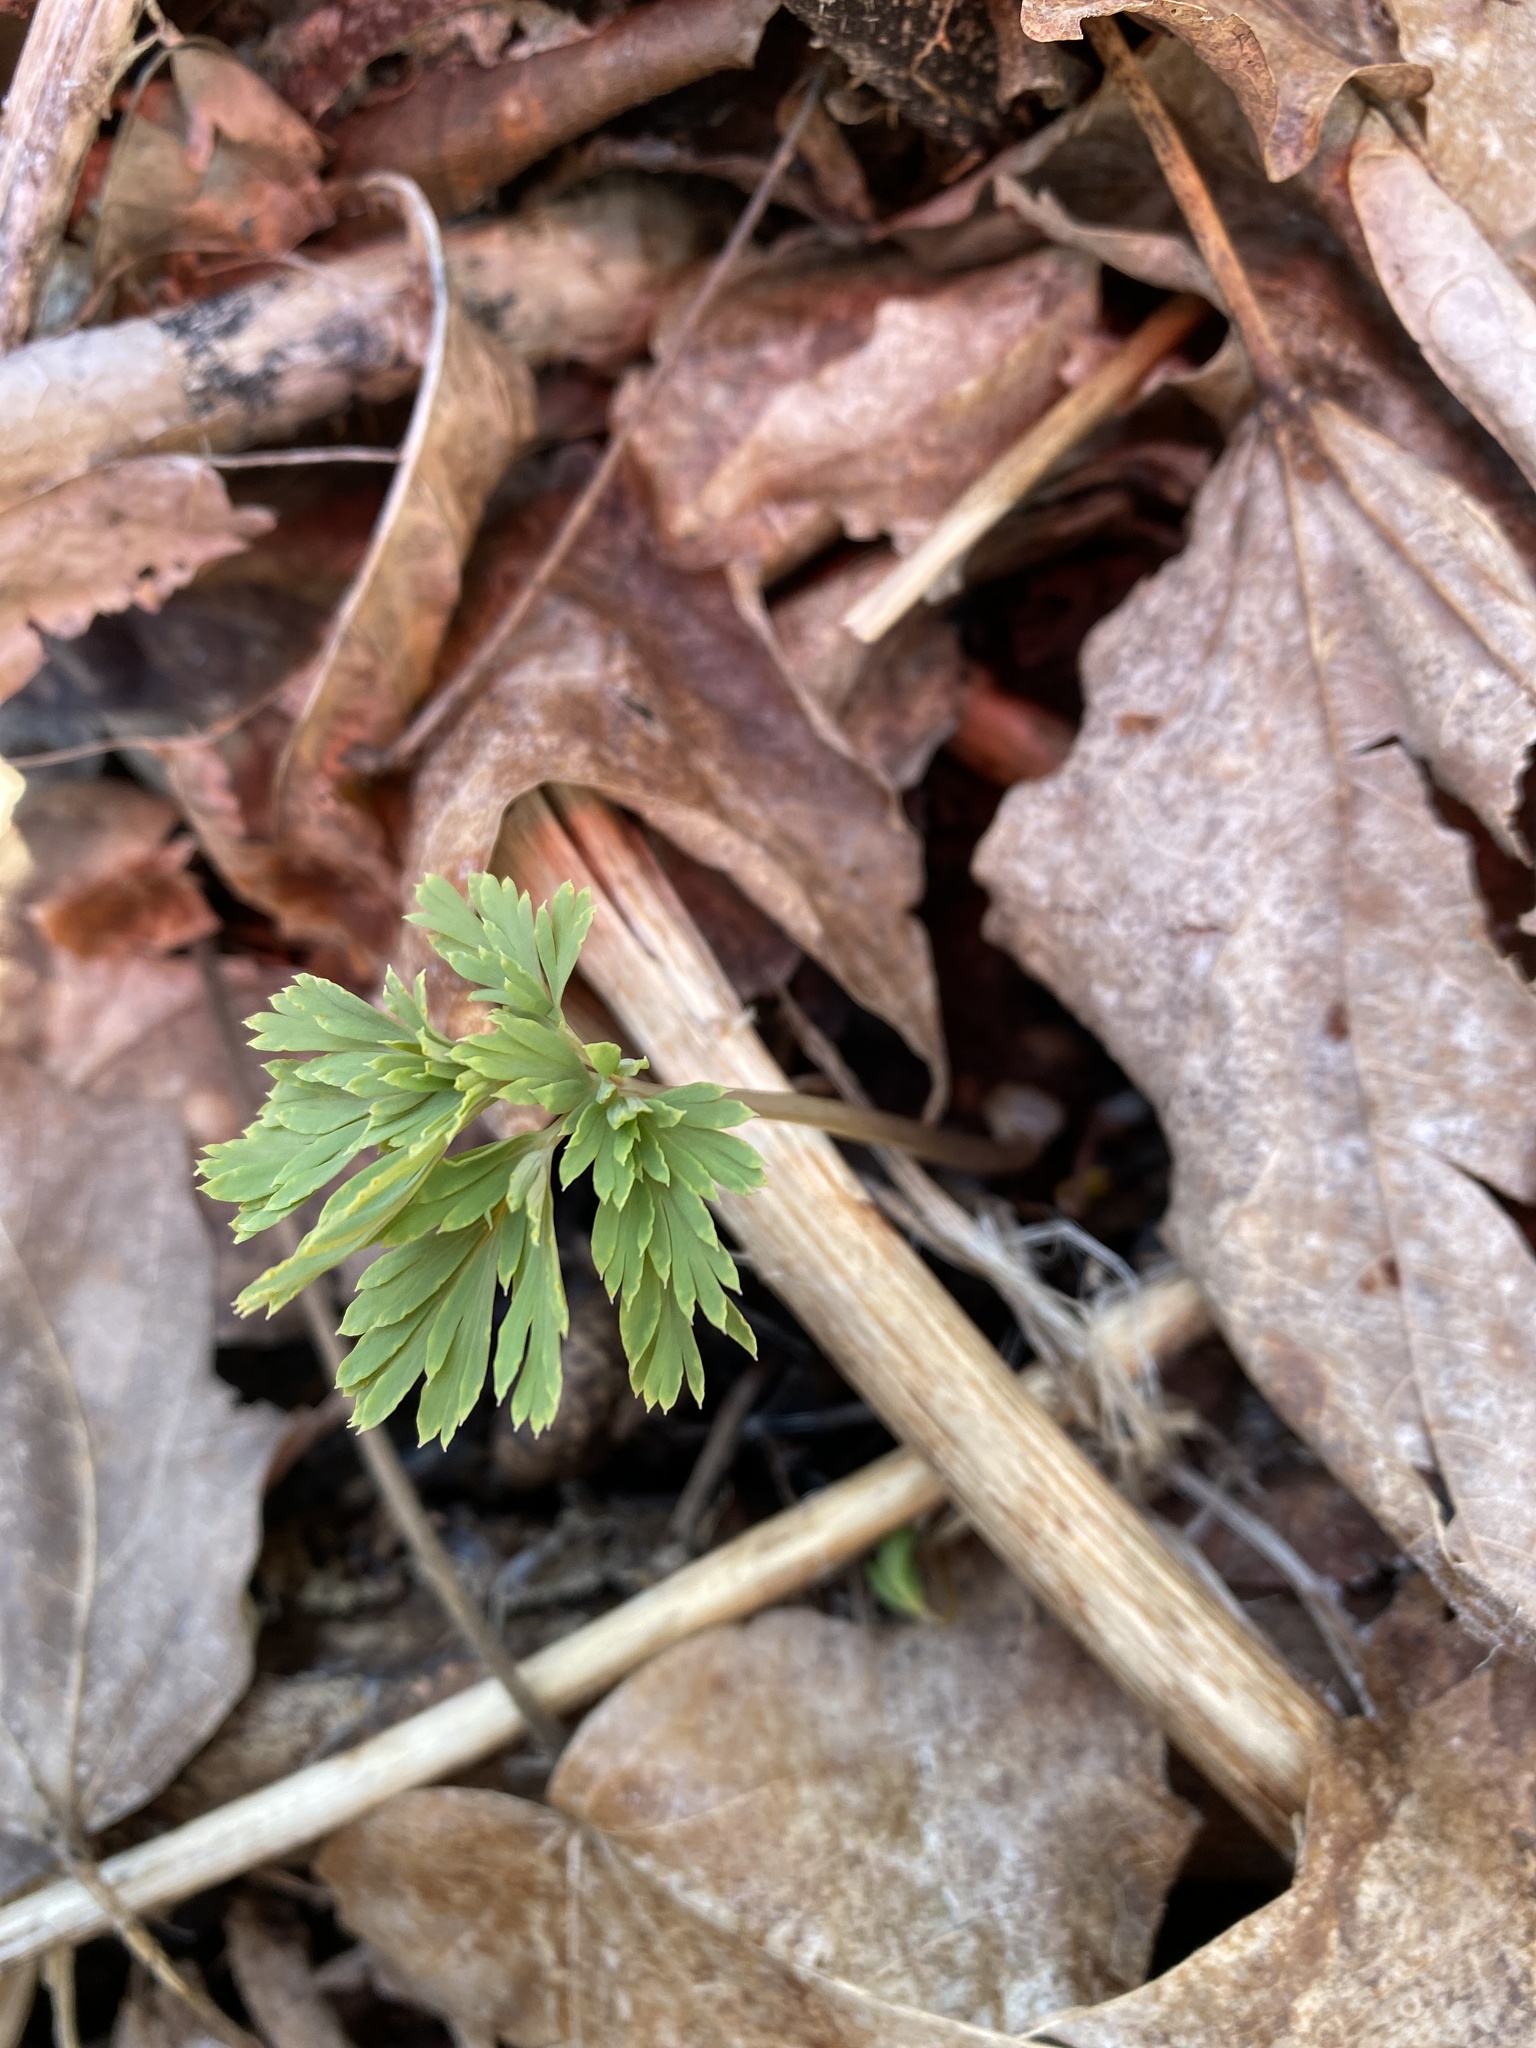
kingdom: Plantae
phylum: Tracheophyta
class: Magnoliopsida
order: Ranunculales
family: Papaveraceae
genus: Dicentra
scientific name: Dicentra cucullaria
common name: Dutchman's breeches
